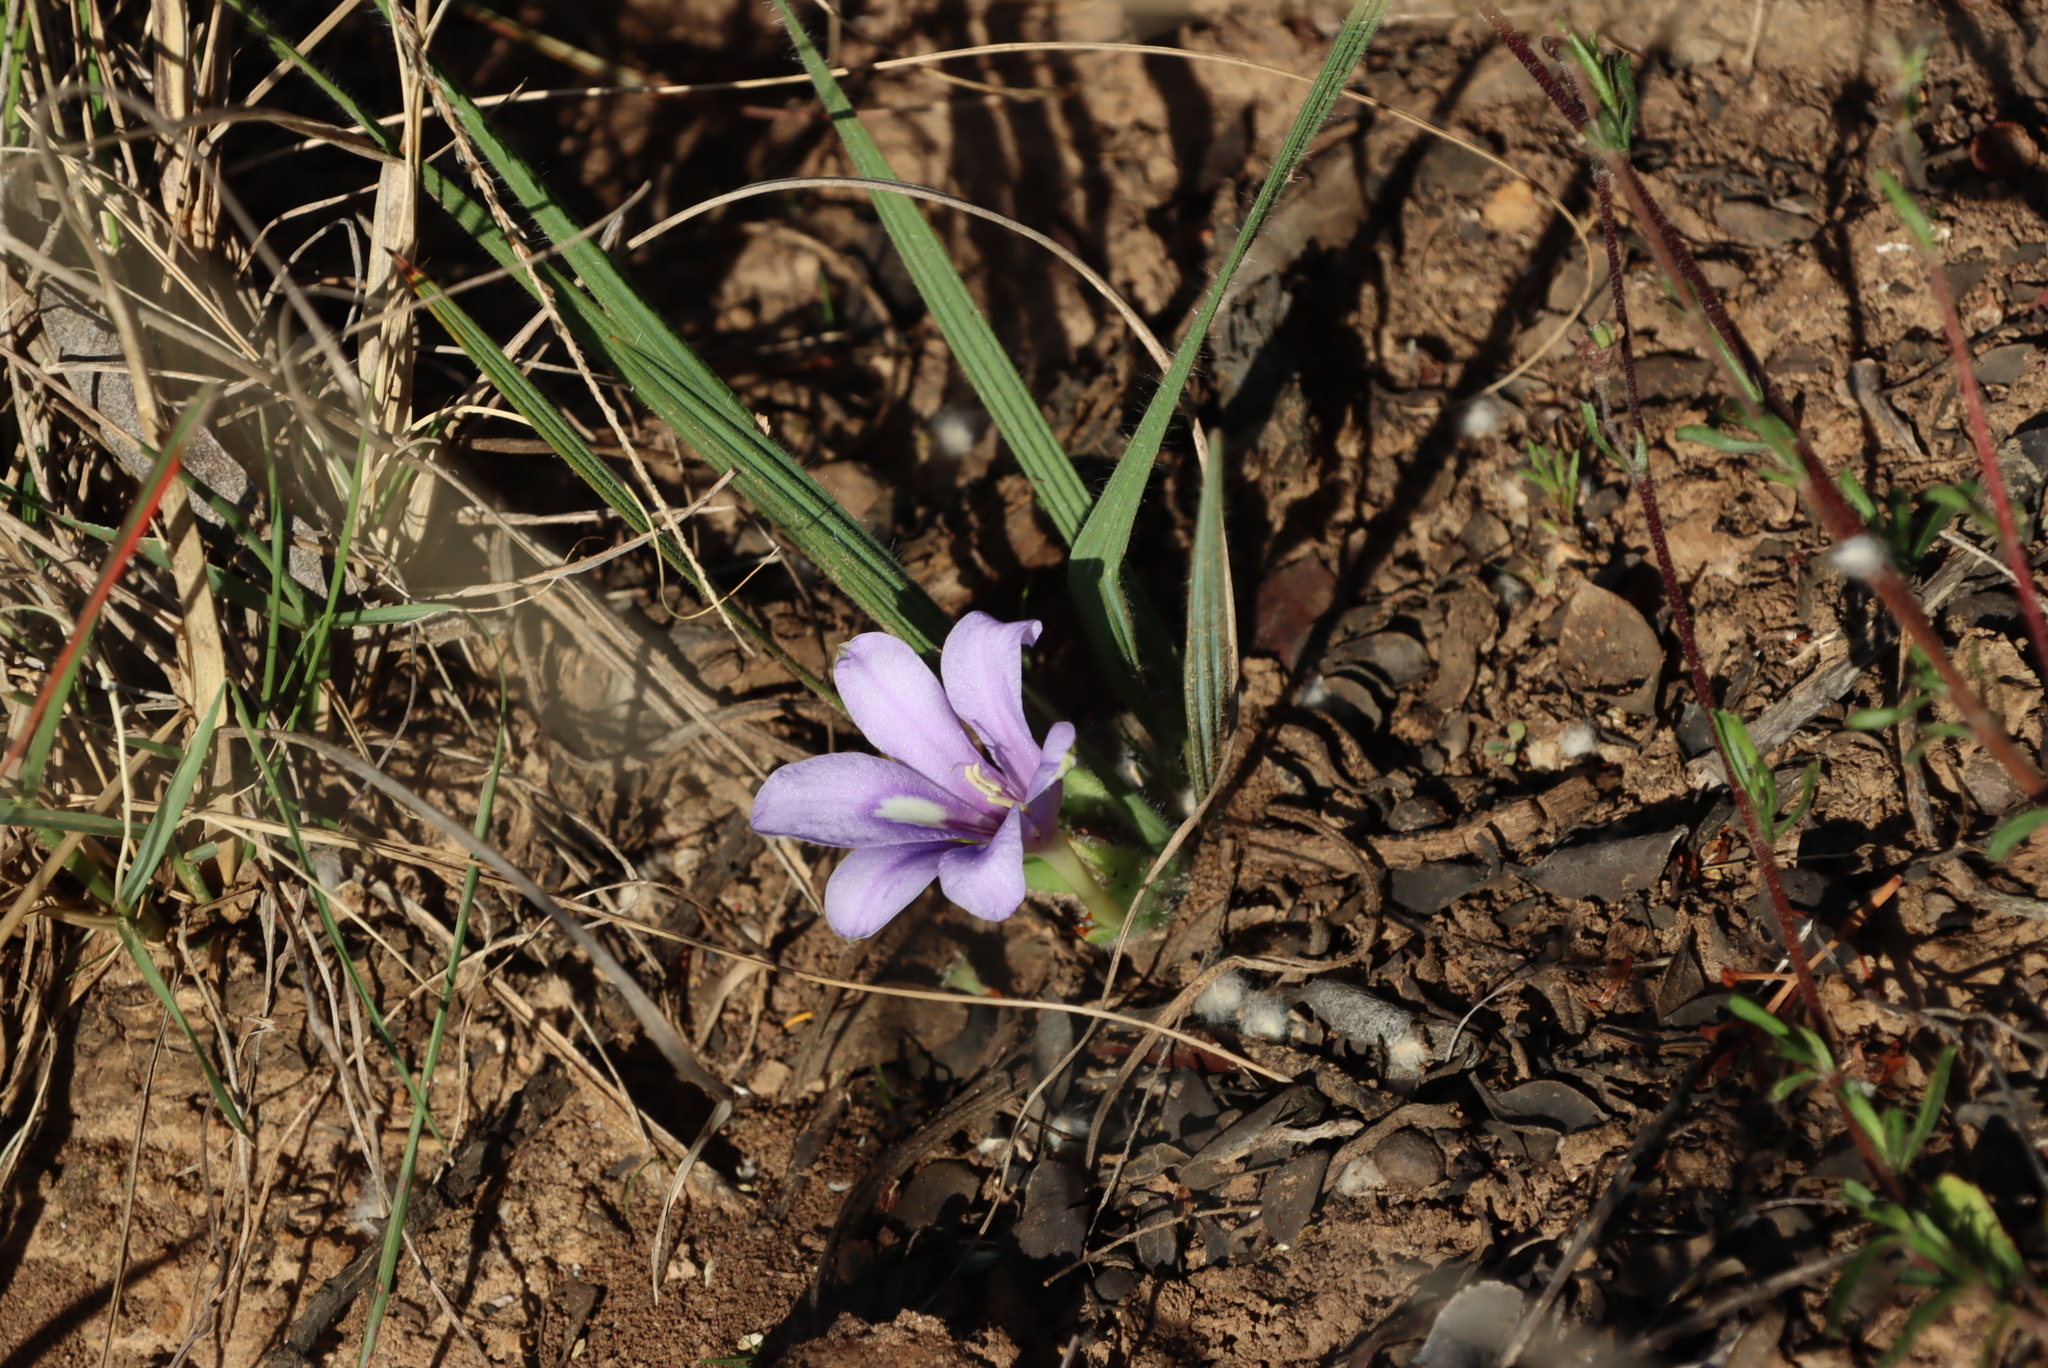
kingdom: Plantae
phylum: Tracheophyta
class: Liliopsida
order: Asparagales
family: Iridaceae
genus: Babiana
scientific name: Babiana sambucina
